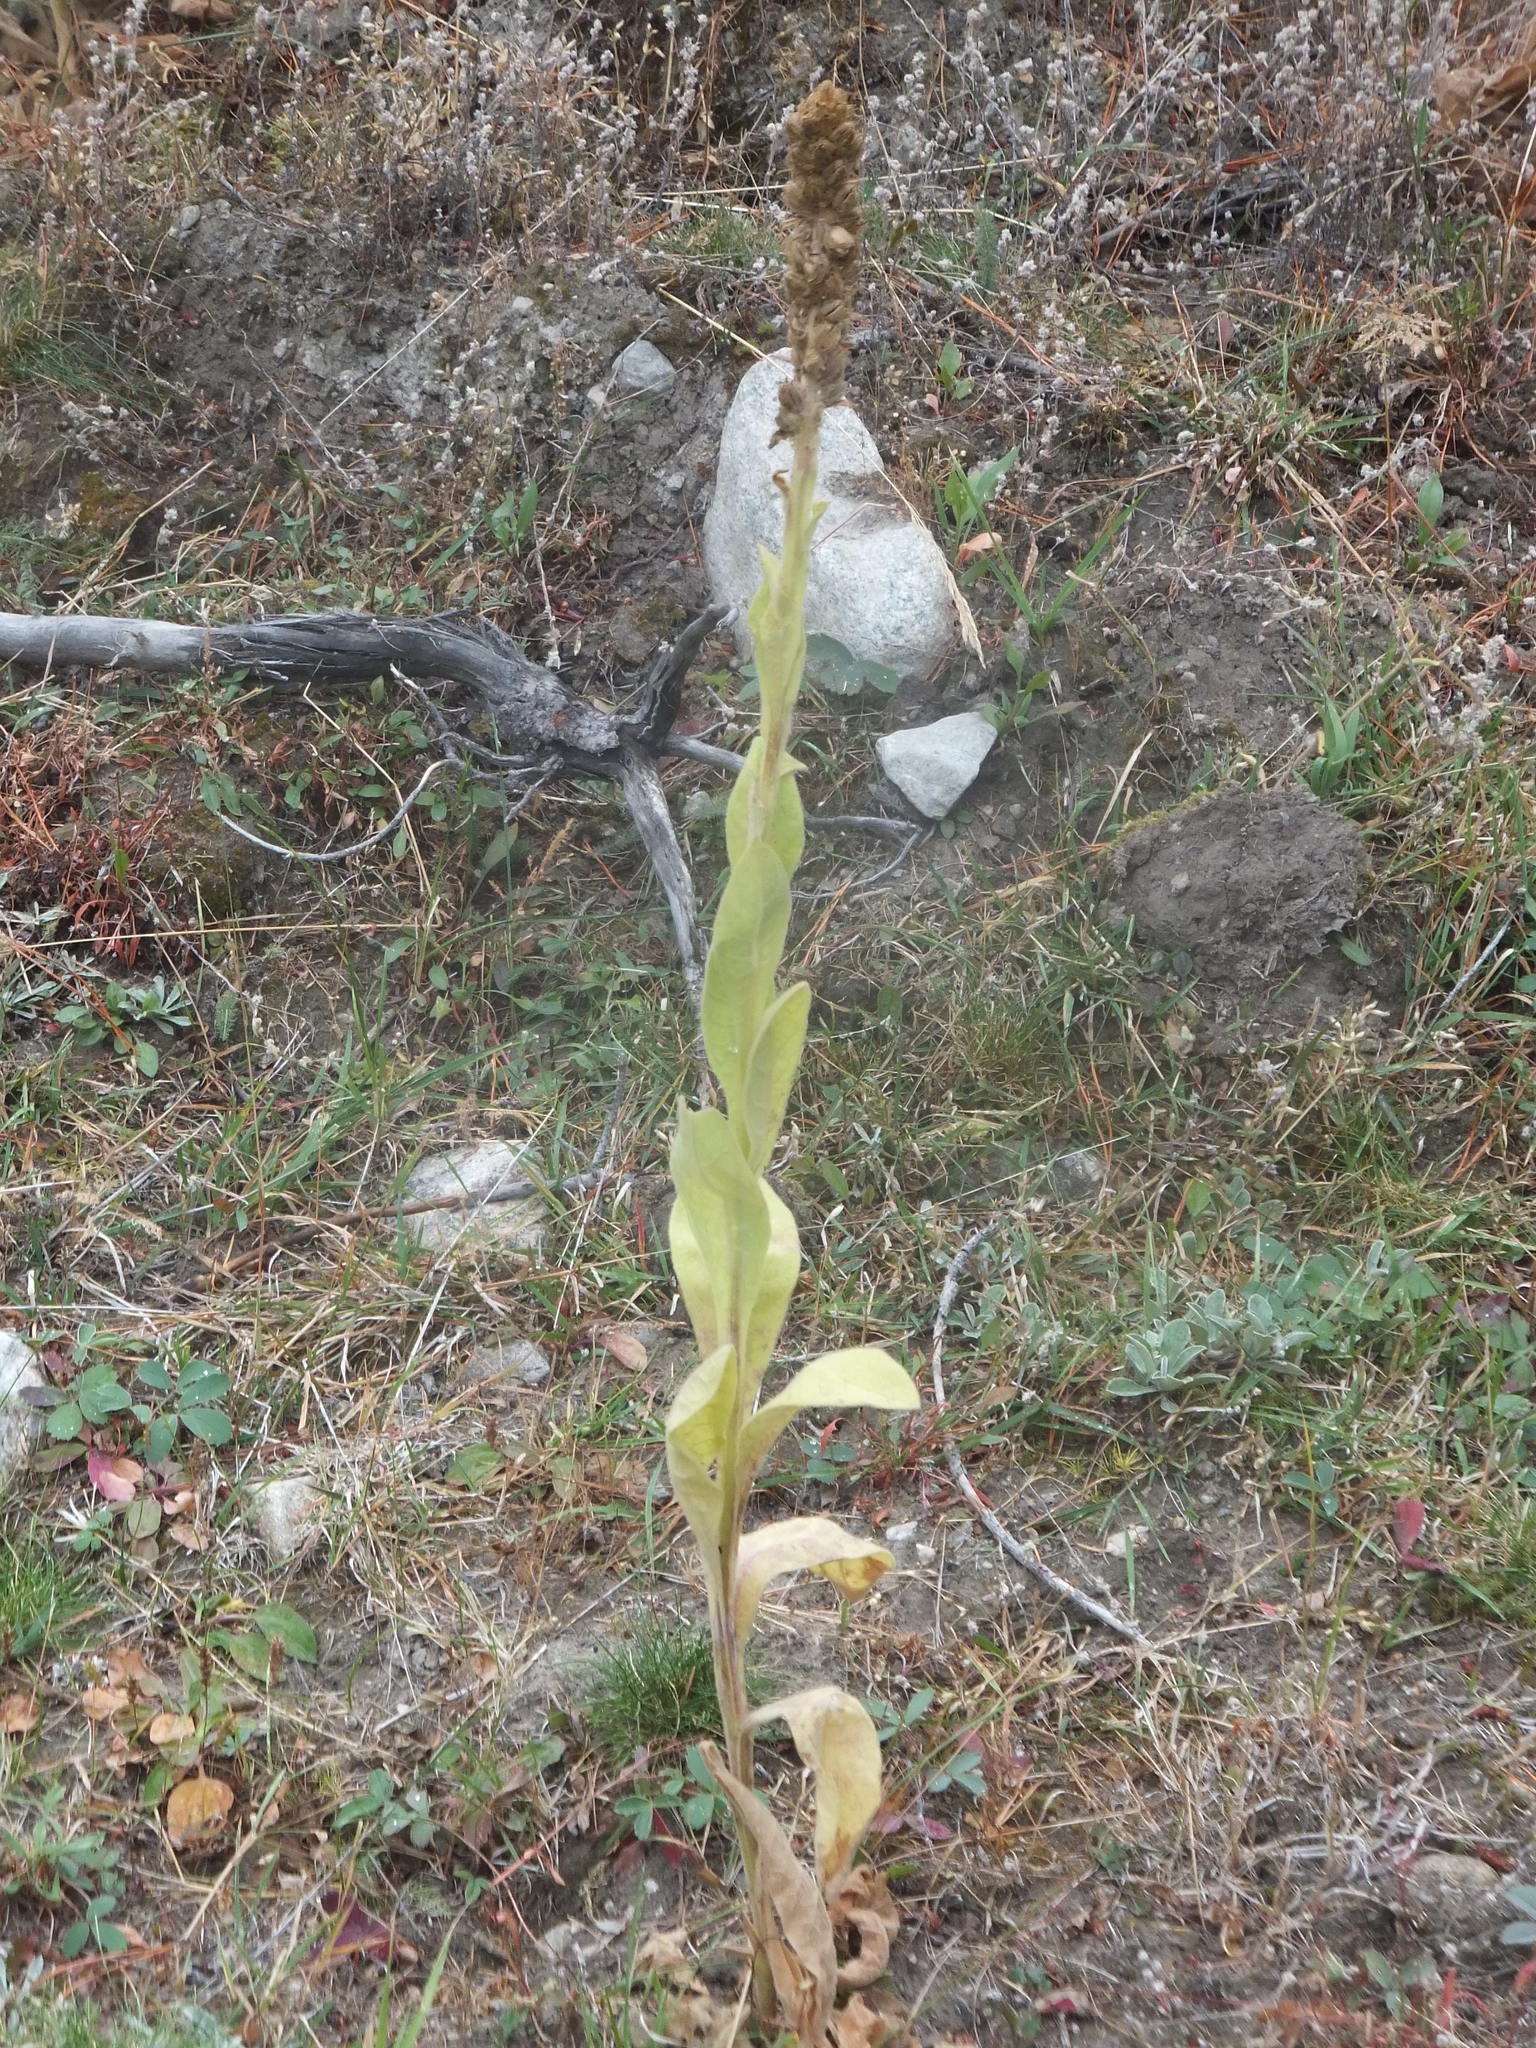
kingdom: Plantae
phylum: Tracheophyta
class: Magnoliopsida
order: Lamiales
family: Scrophulariaceae
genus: Verbascum
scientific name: Verbascum thapsus
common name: Common mullein
